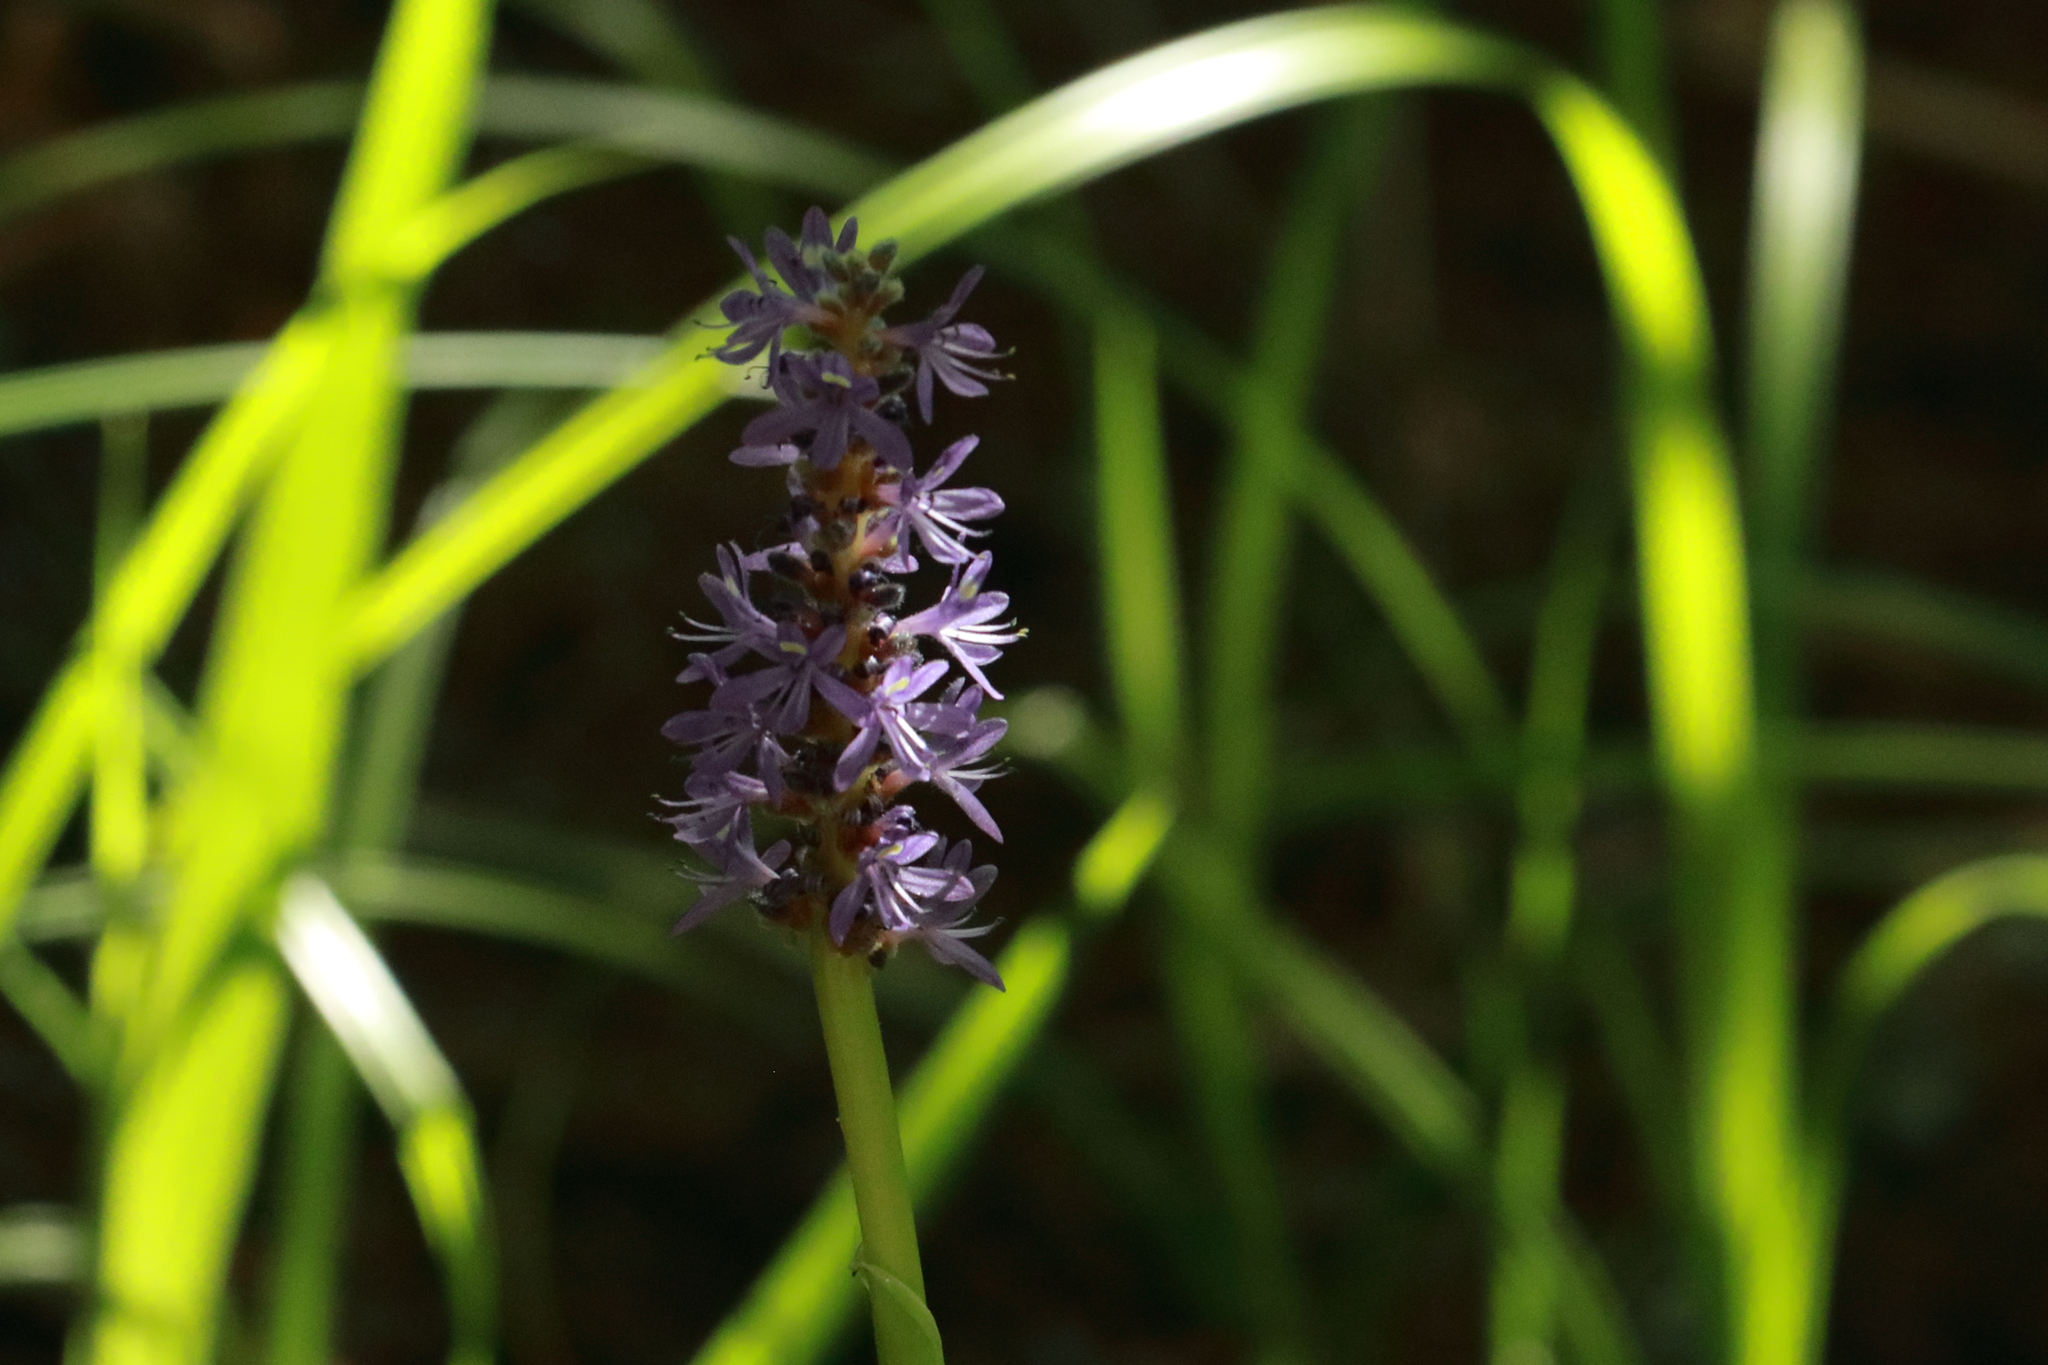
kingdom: Plantae
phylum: Tracheophyta
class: Liliopsida
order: Commelinales
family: Pontederiaceae
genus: Pontederia
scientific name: Pontederia cordata
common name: Pickerelweed
